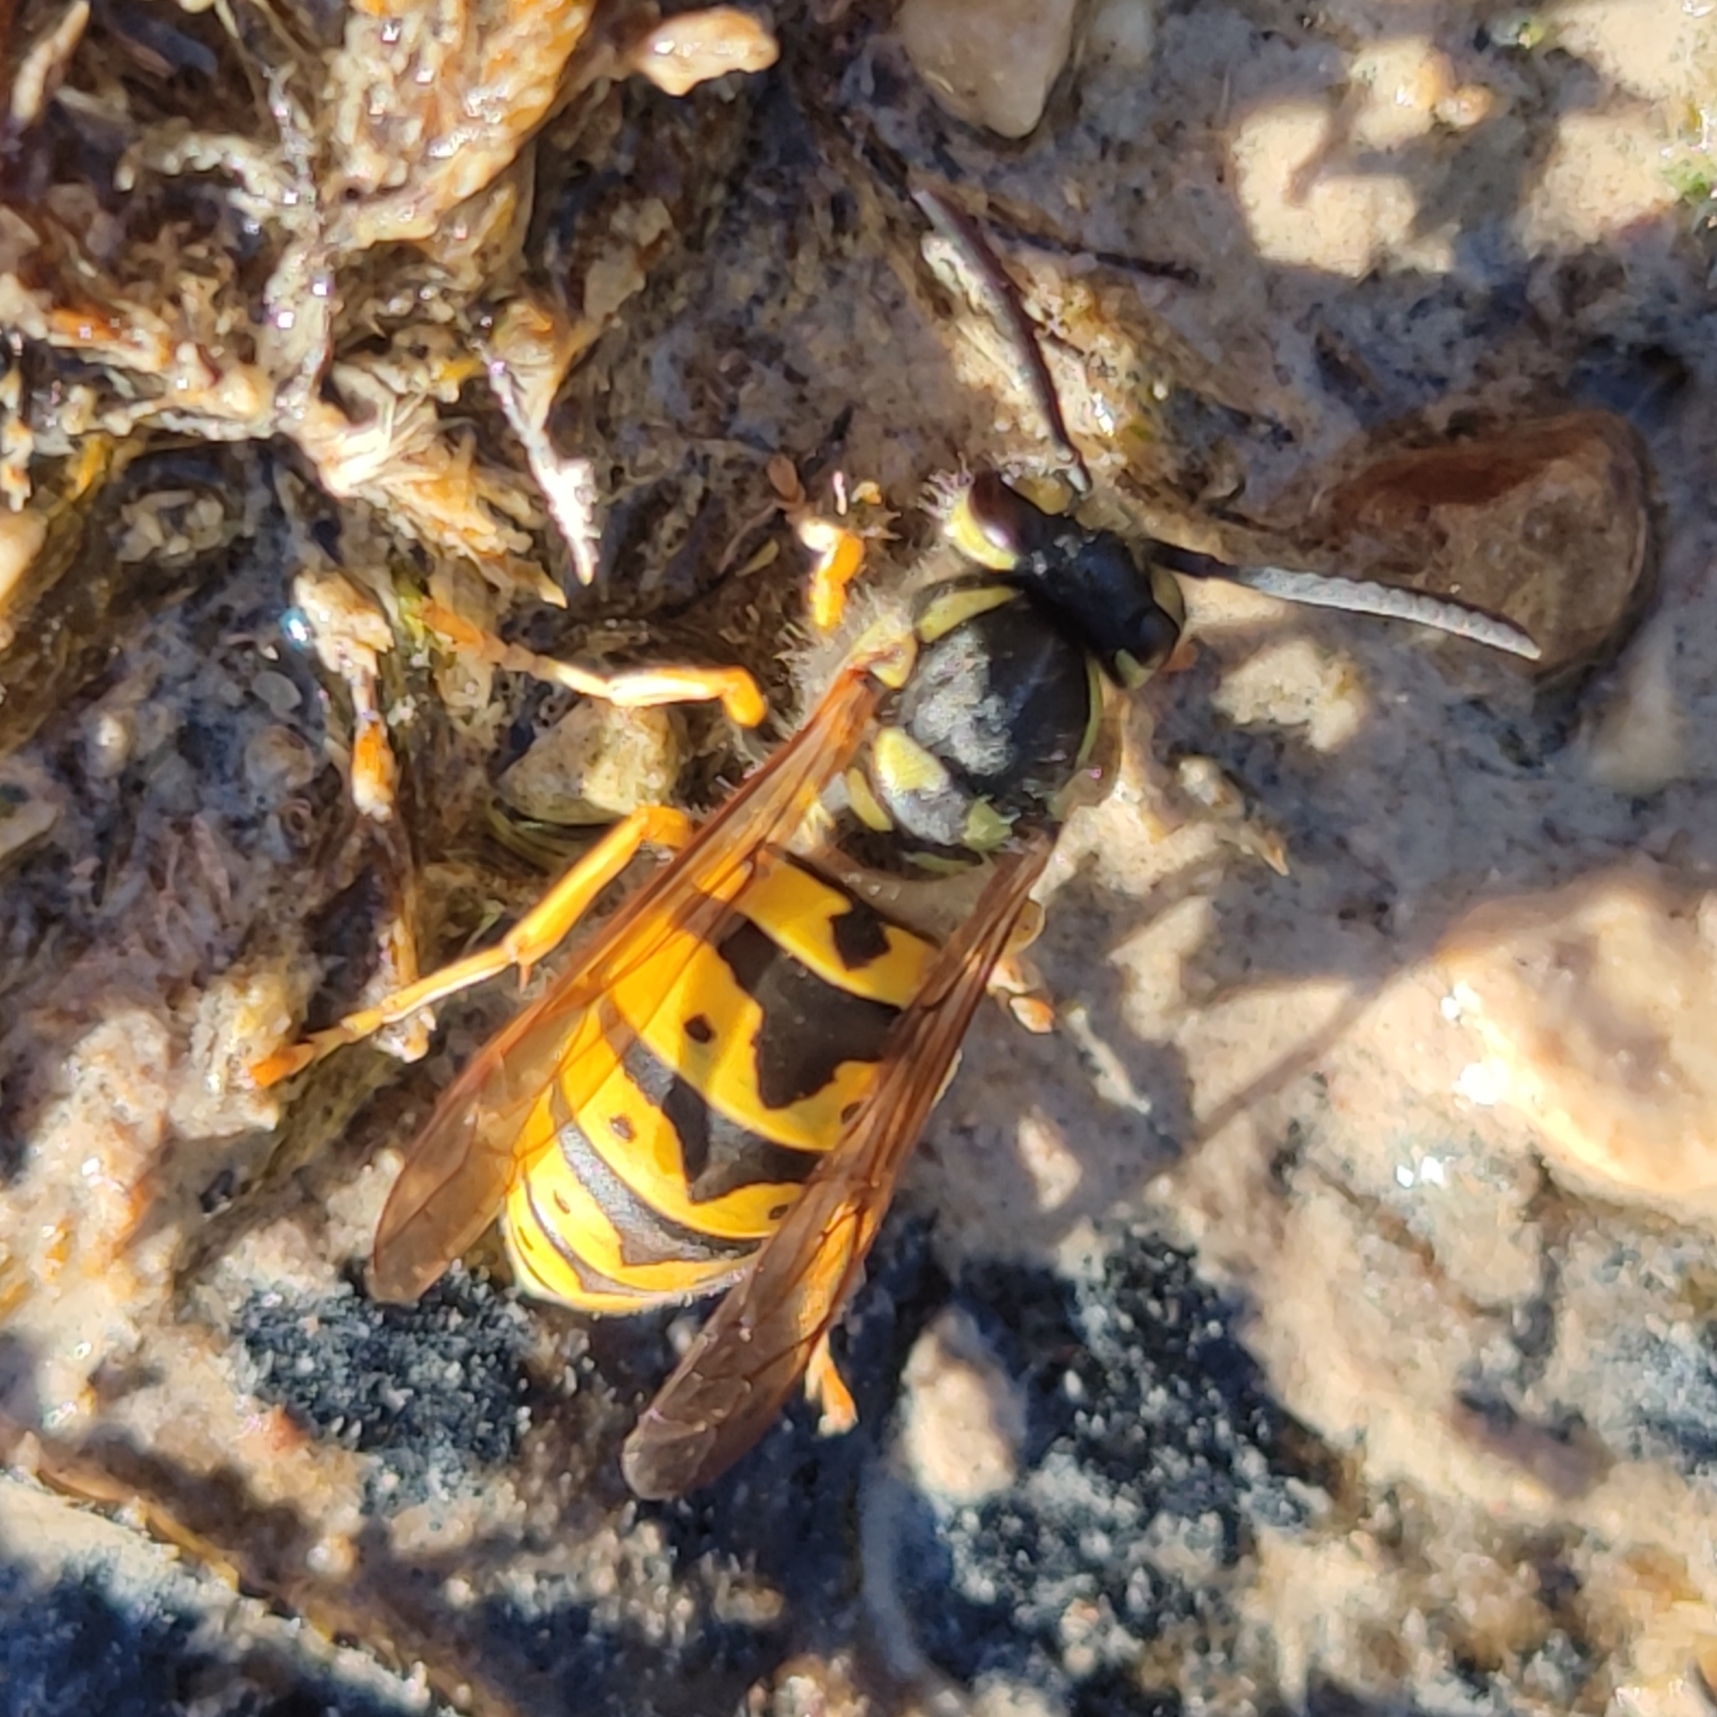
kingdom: Animalia
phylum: Arthropoda
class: Insecta
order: Hymenoptera
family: Vespidae
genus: Vespula
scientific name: Vespula germanica
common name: German wasp
